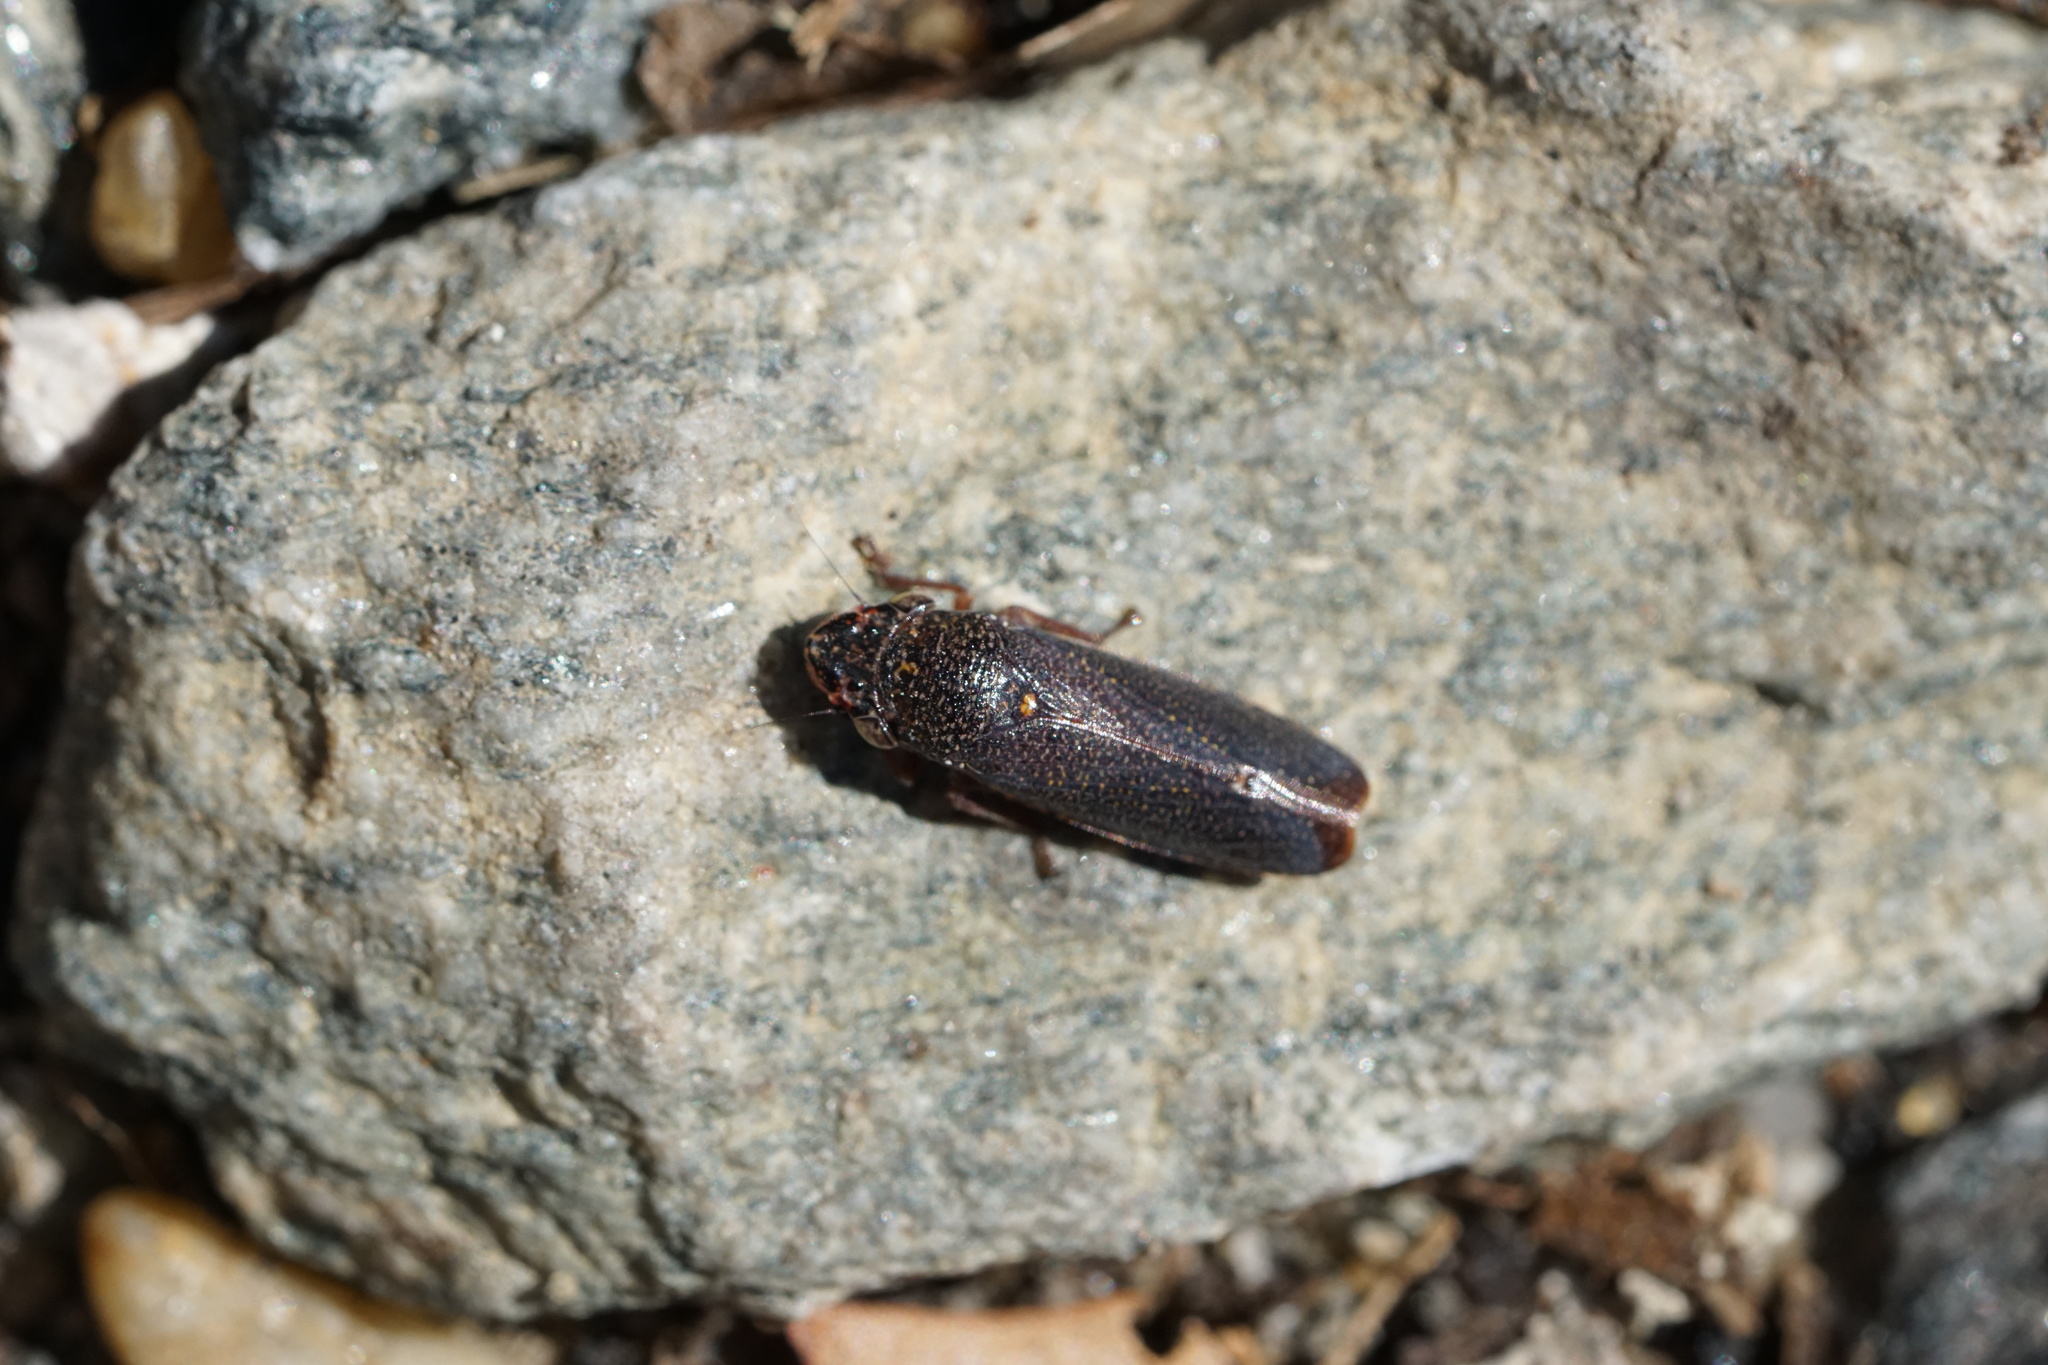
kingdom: Animalia
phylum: Arthropoda
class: Insecta
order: Hemiptera
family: Cicadellidae
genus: Paraulacizes
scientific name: Paraulacizes irrorata
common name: Speckled sharpshooter
